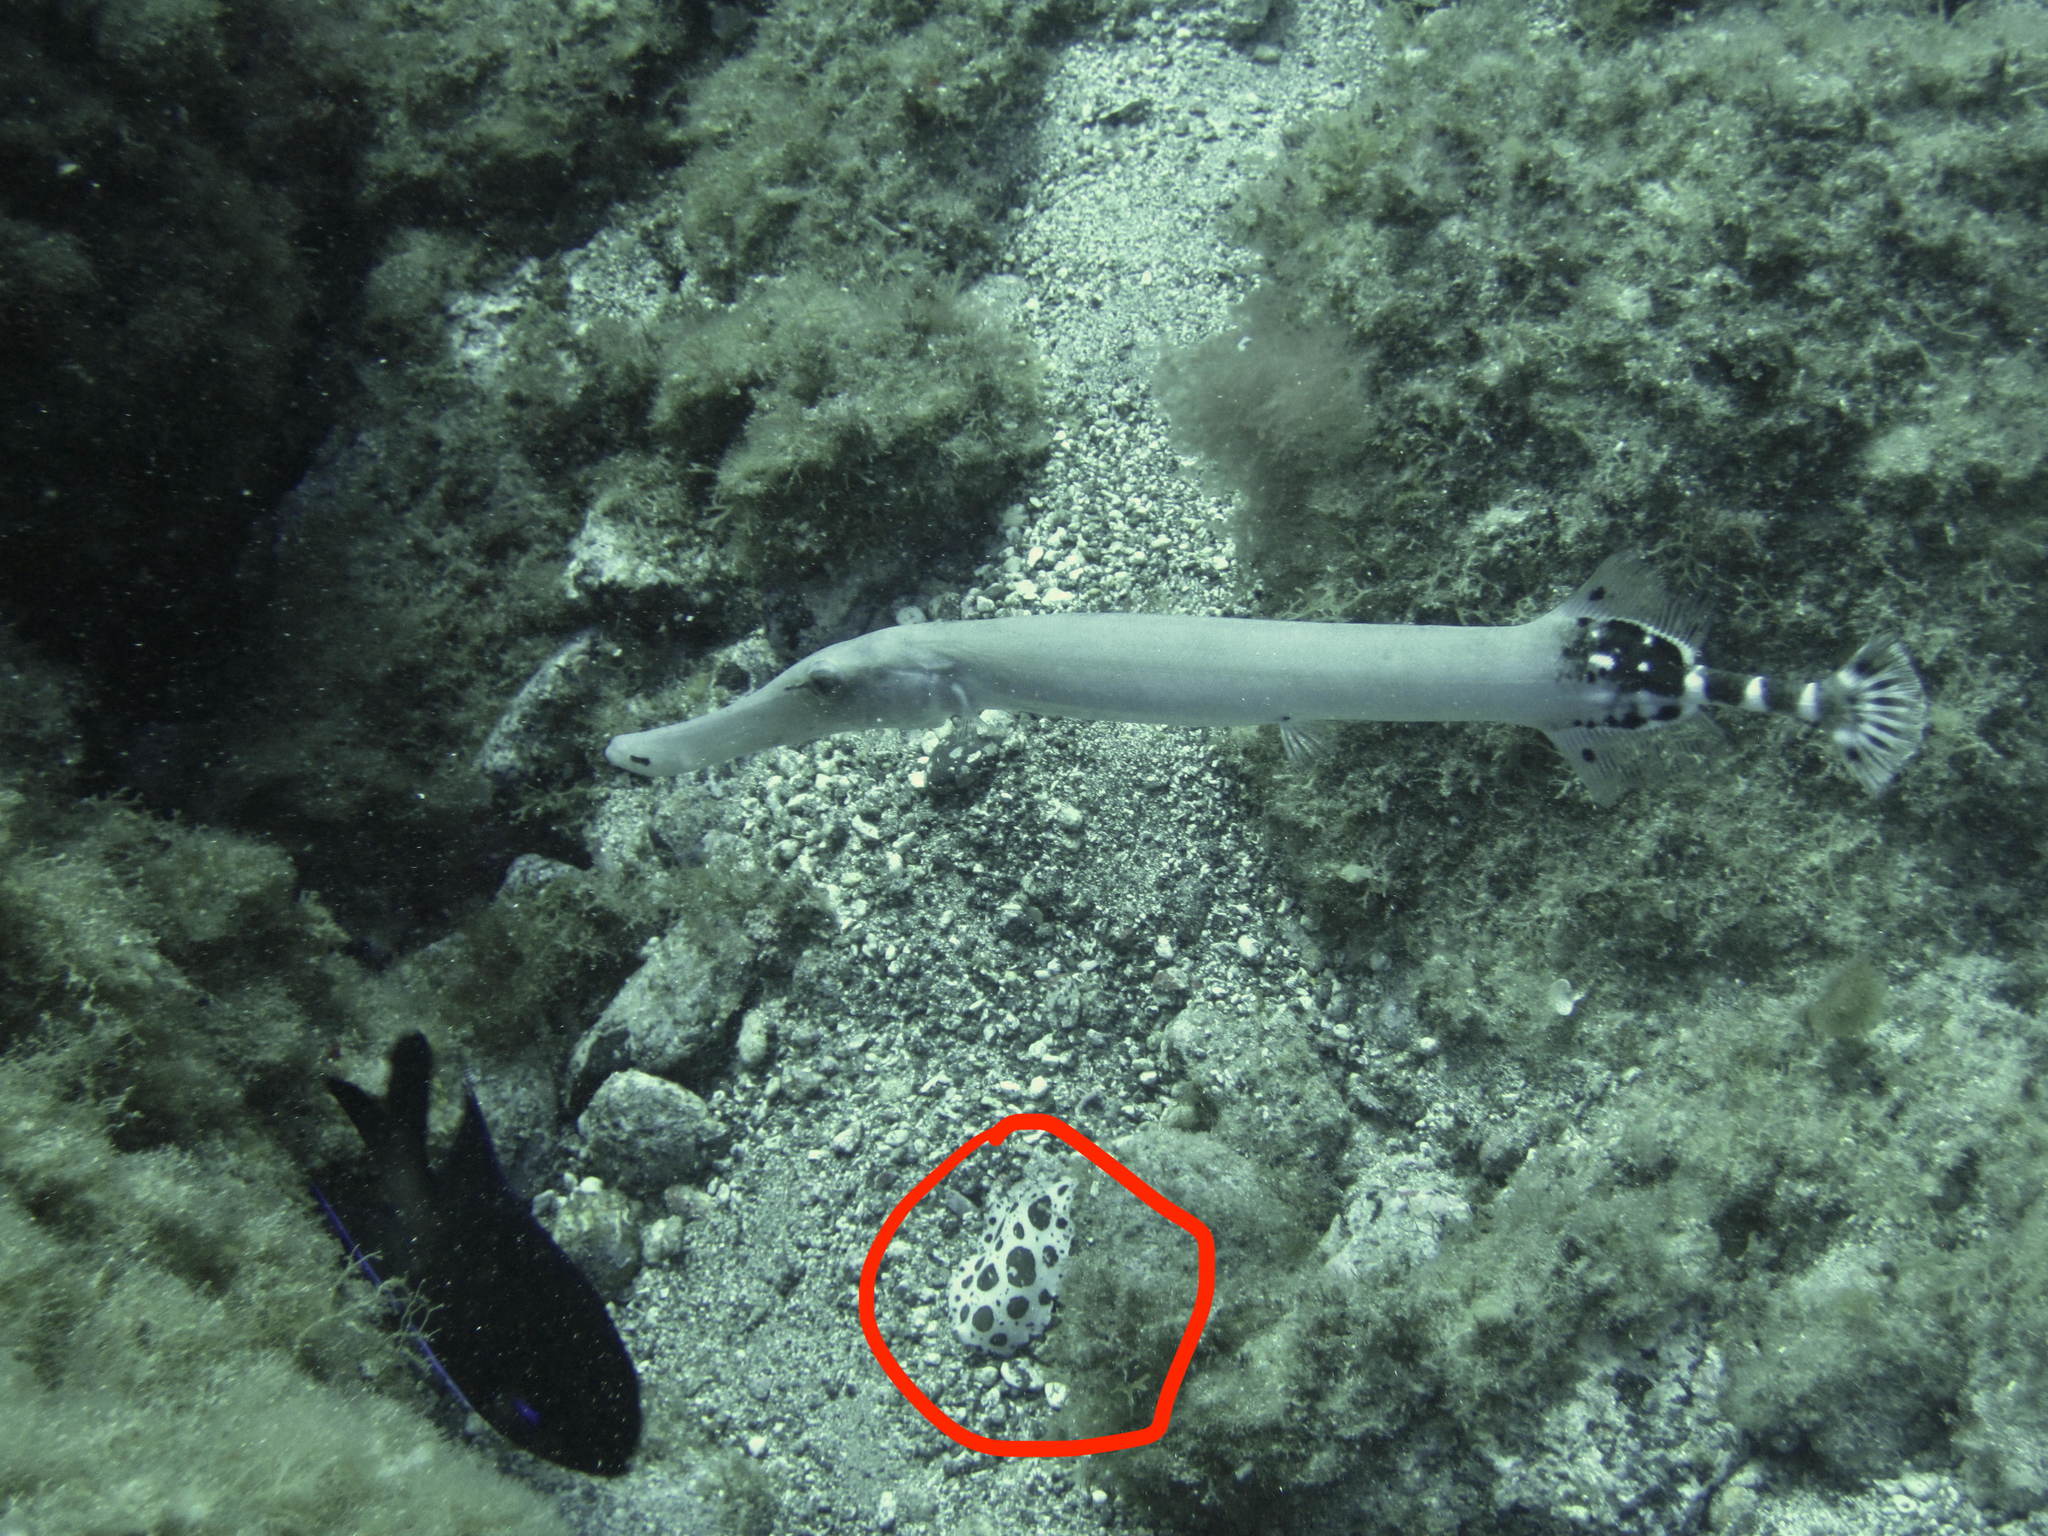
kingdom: Animalia
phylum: Mollusca
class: Gastropoda
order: Nudibranchia
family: Discodorididae
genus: Peltodoris
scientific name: Peltodoris atromaculata
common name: Swiss cow nudibranch
